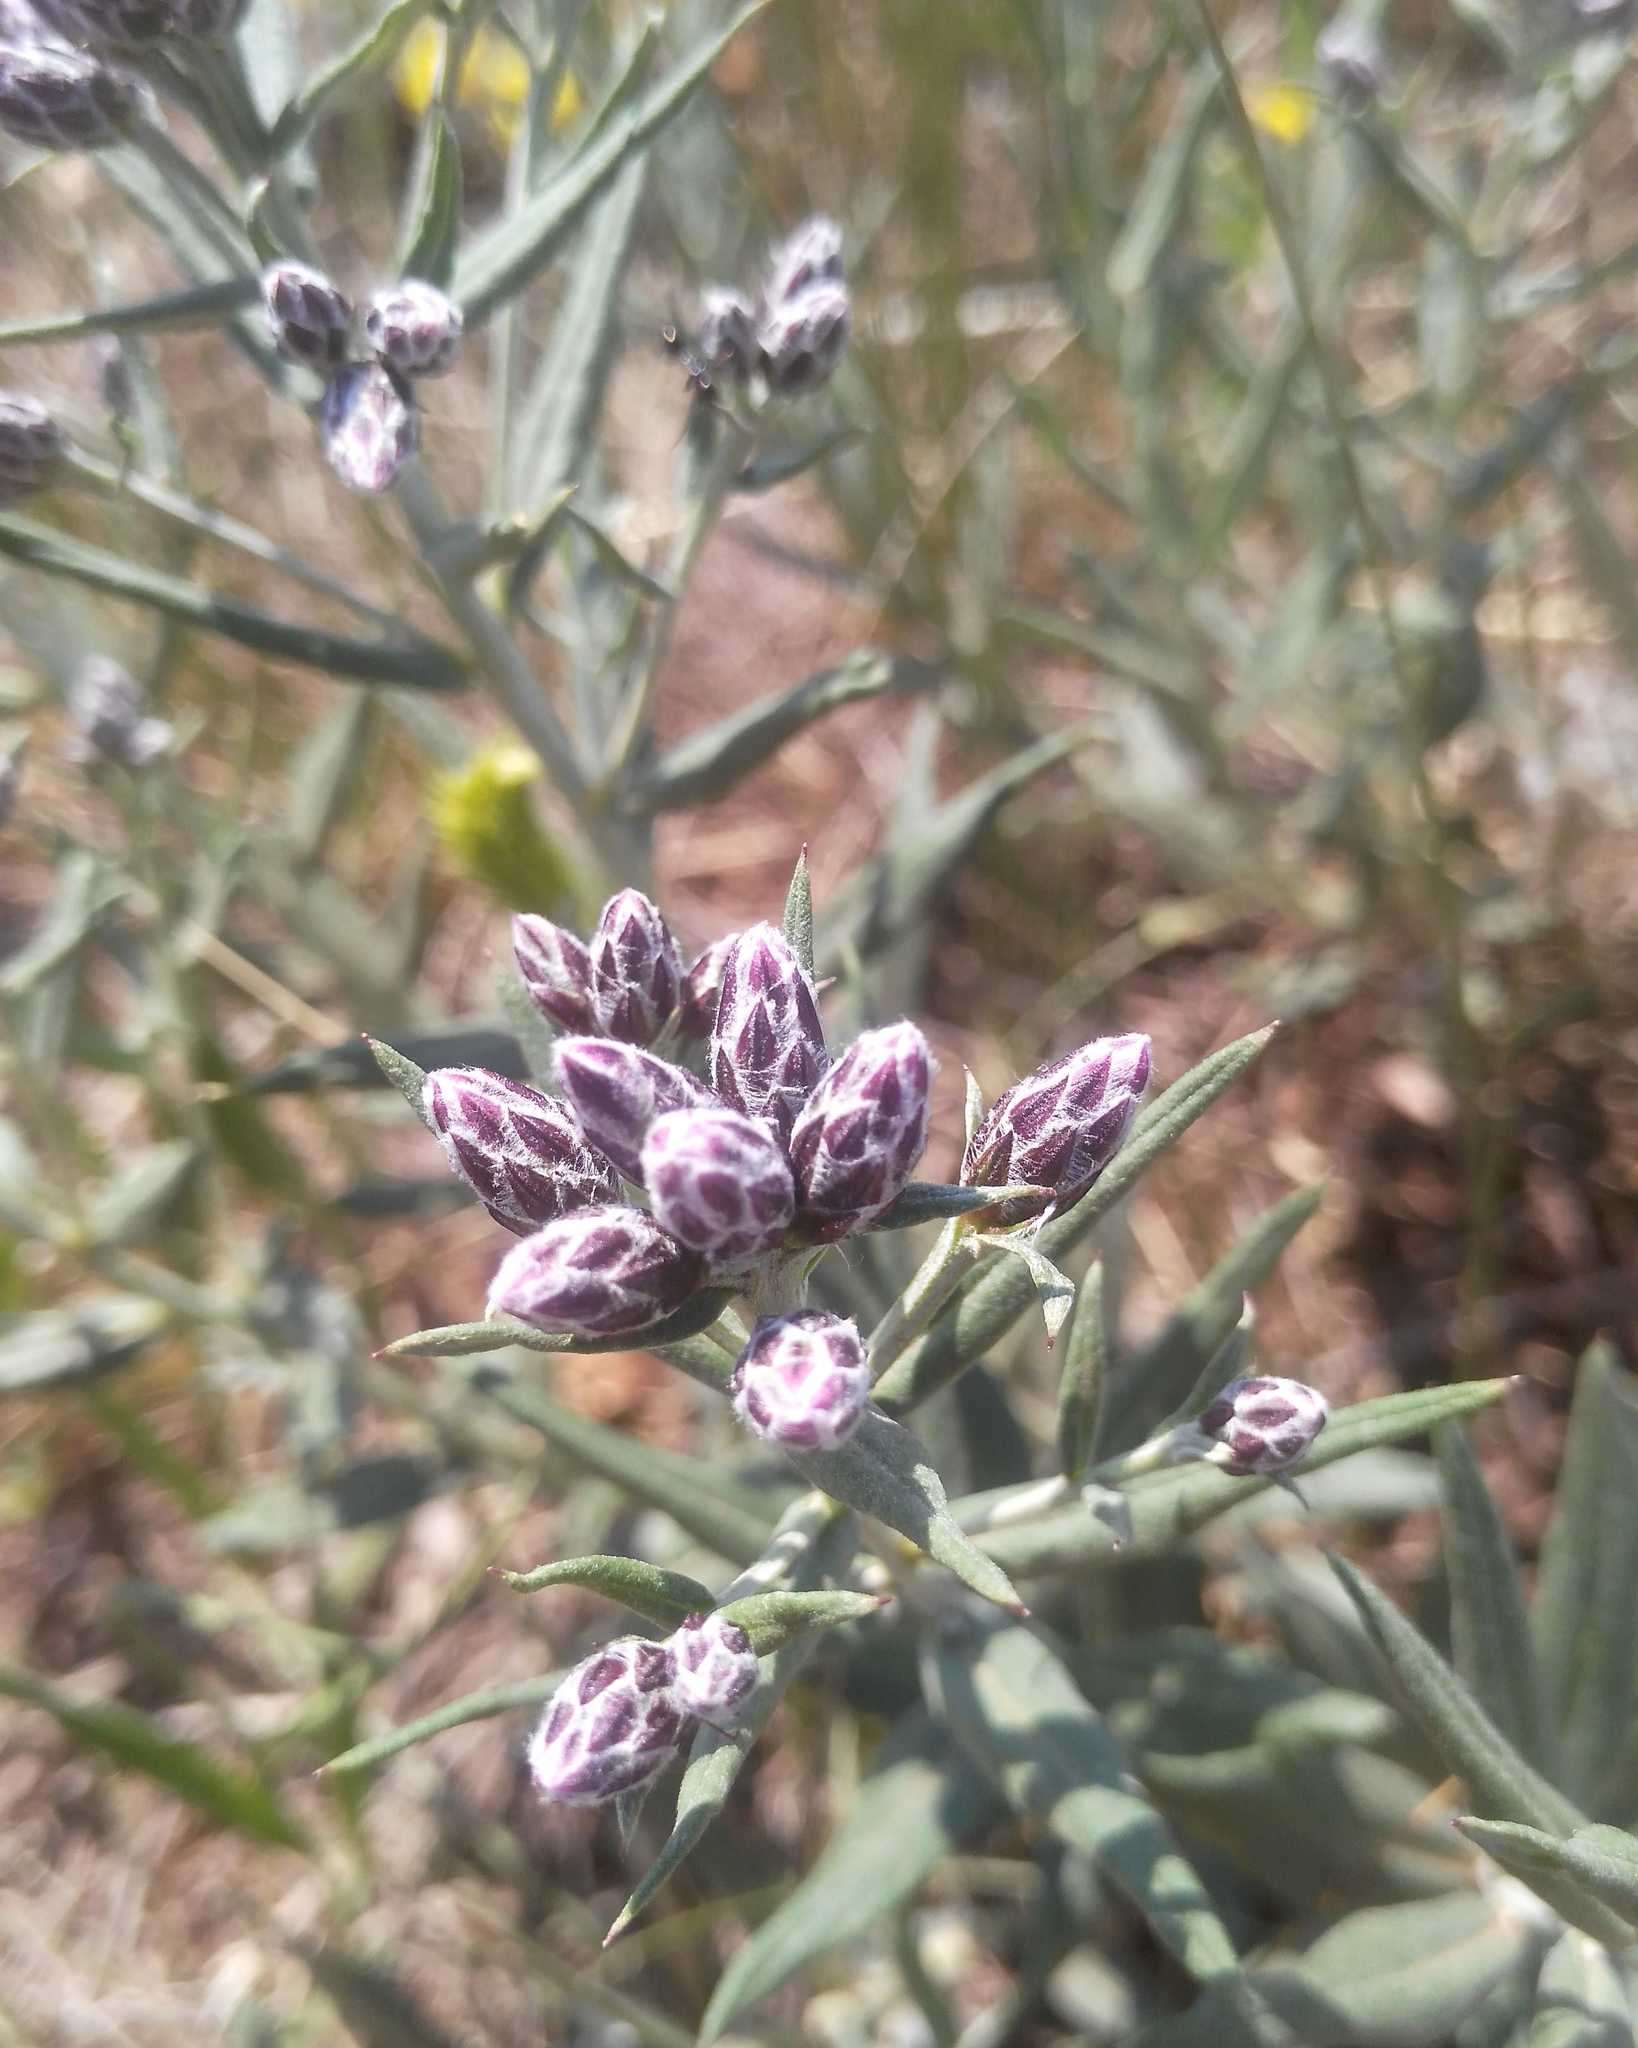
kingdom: Plantae
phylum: Tracheophyta
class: Magnoliopsida
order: Asterales
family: Asteraceae
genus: Saussurea
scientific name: Saussurea salicifolia
